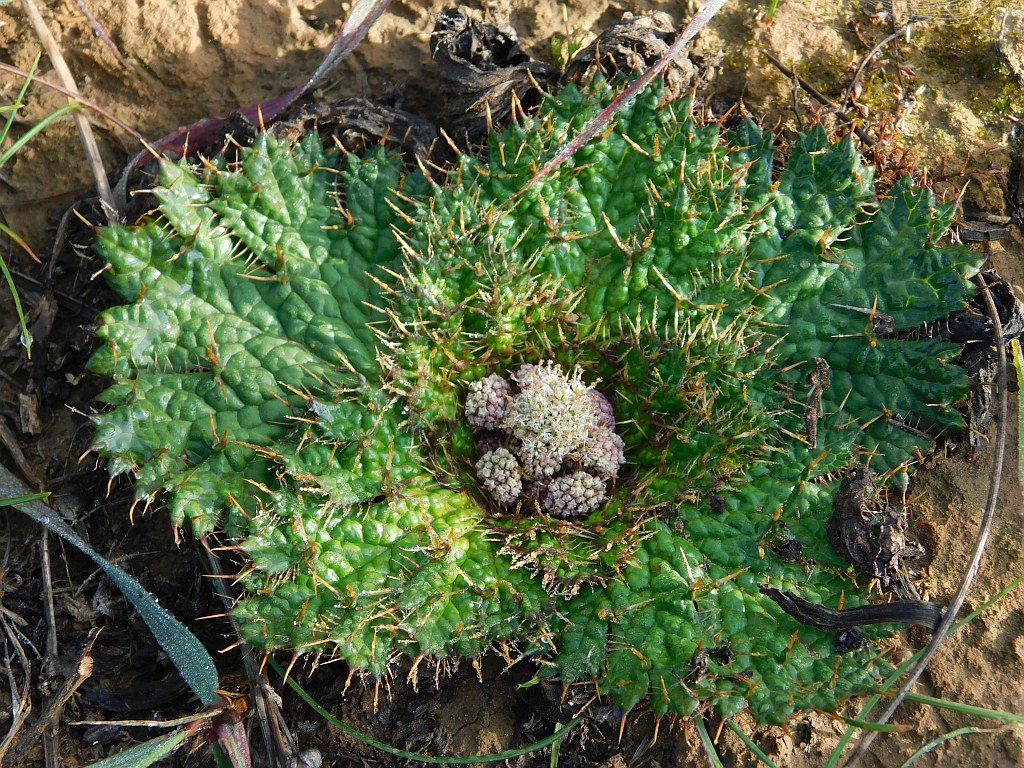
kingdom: Plantae
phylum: Tracheophyta
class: Magnoliopsida
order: Apiales
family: Apiaceae
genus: Arctopus
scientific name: Arctopus echinatus
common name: Platdoring
